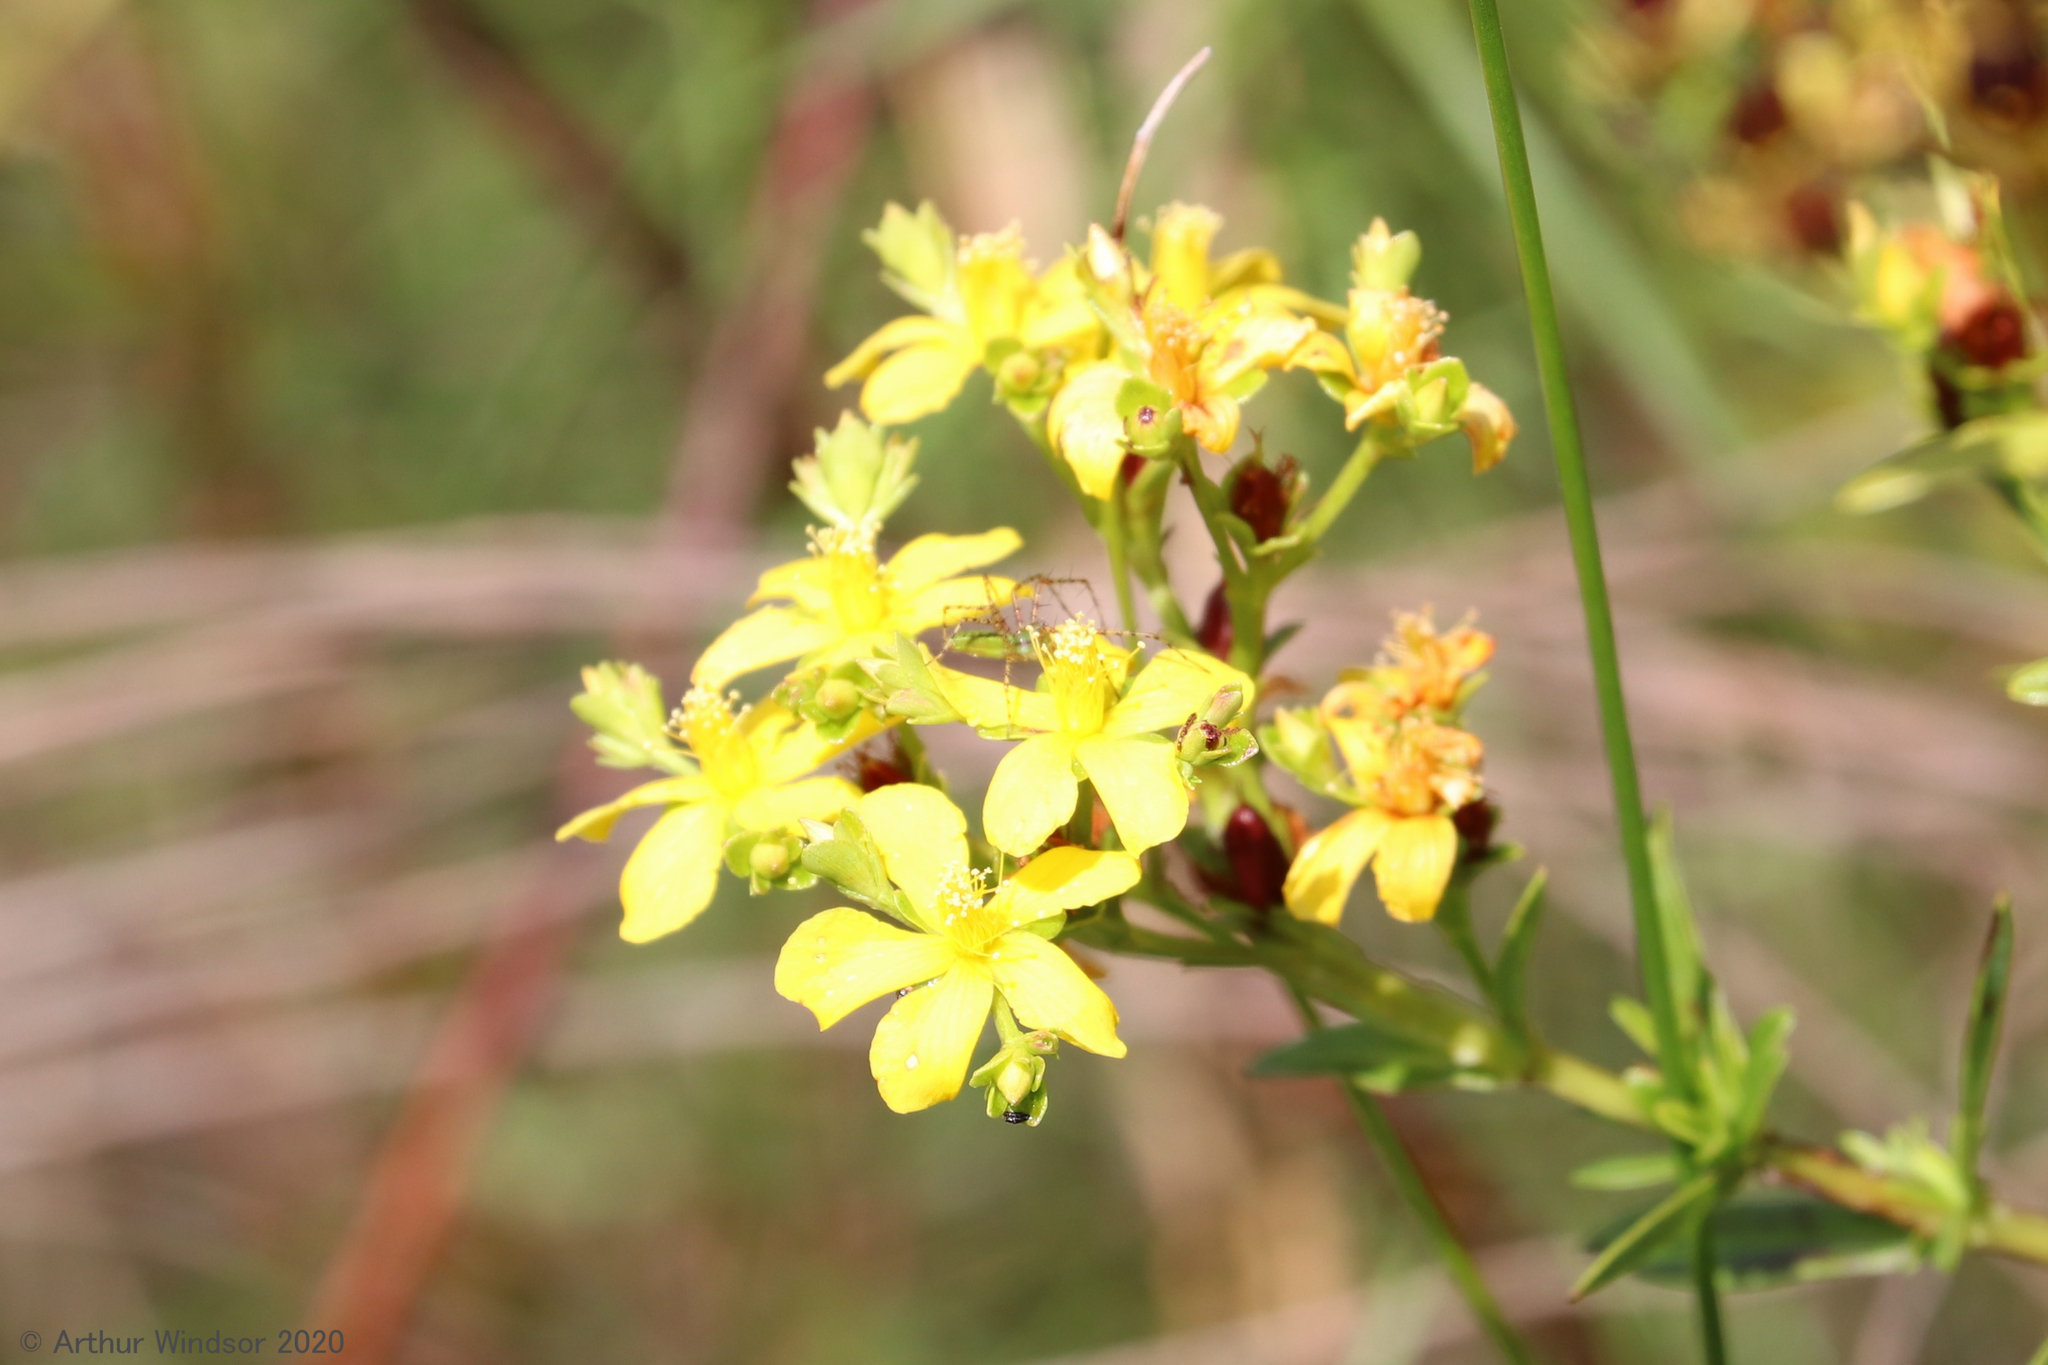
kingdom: Animalia
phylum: Arthropoda
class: Arachnida
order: Araneae
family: Oxyopidae
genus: Peucetia
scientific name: Peucetia viridans
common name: Lynx spiders
